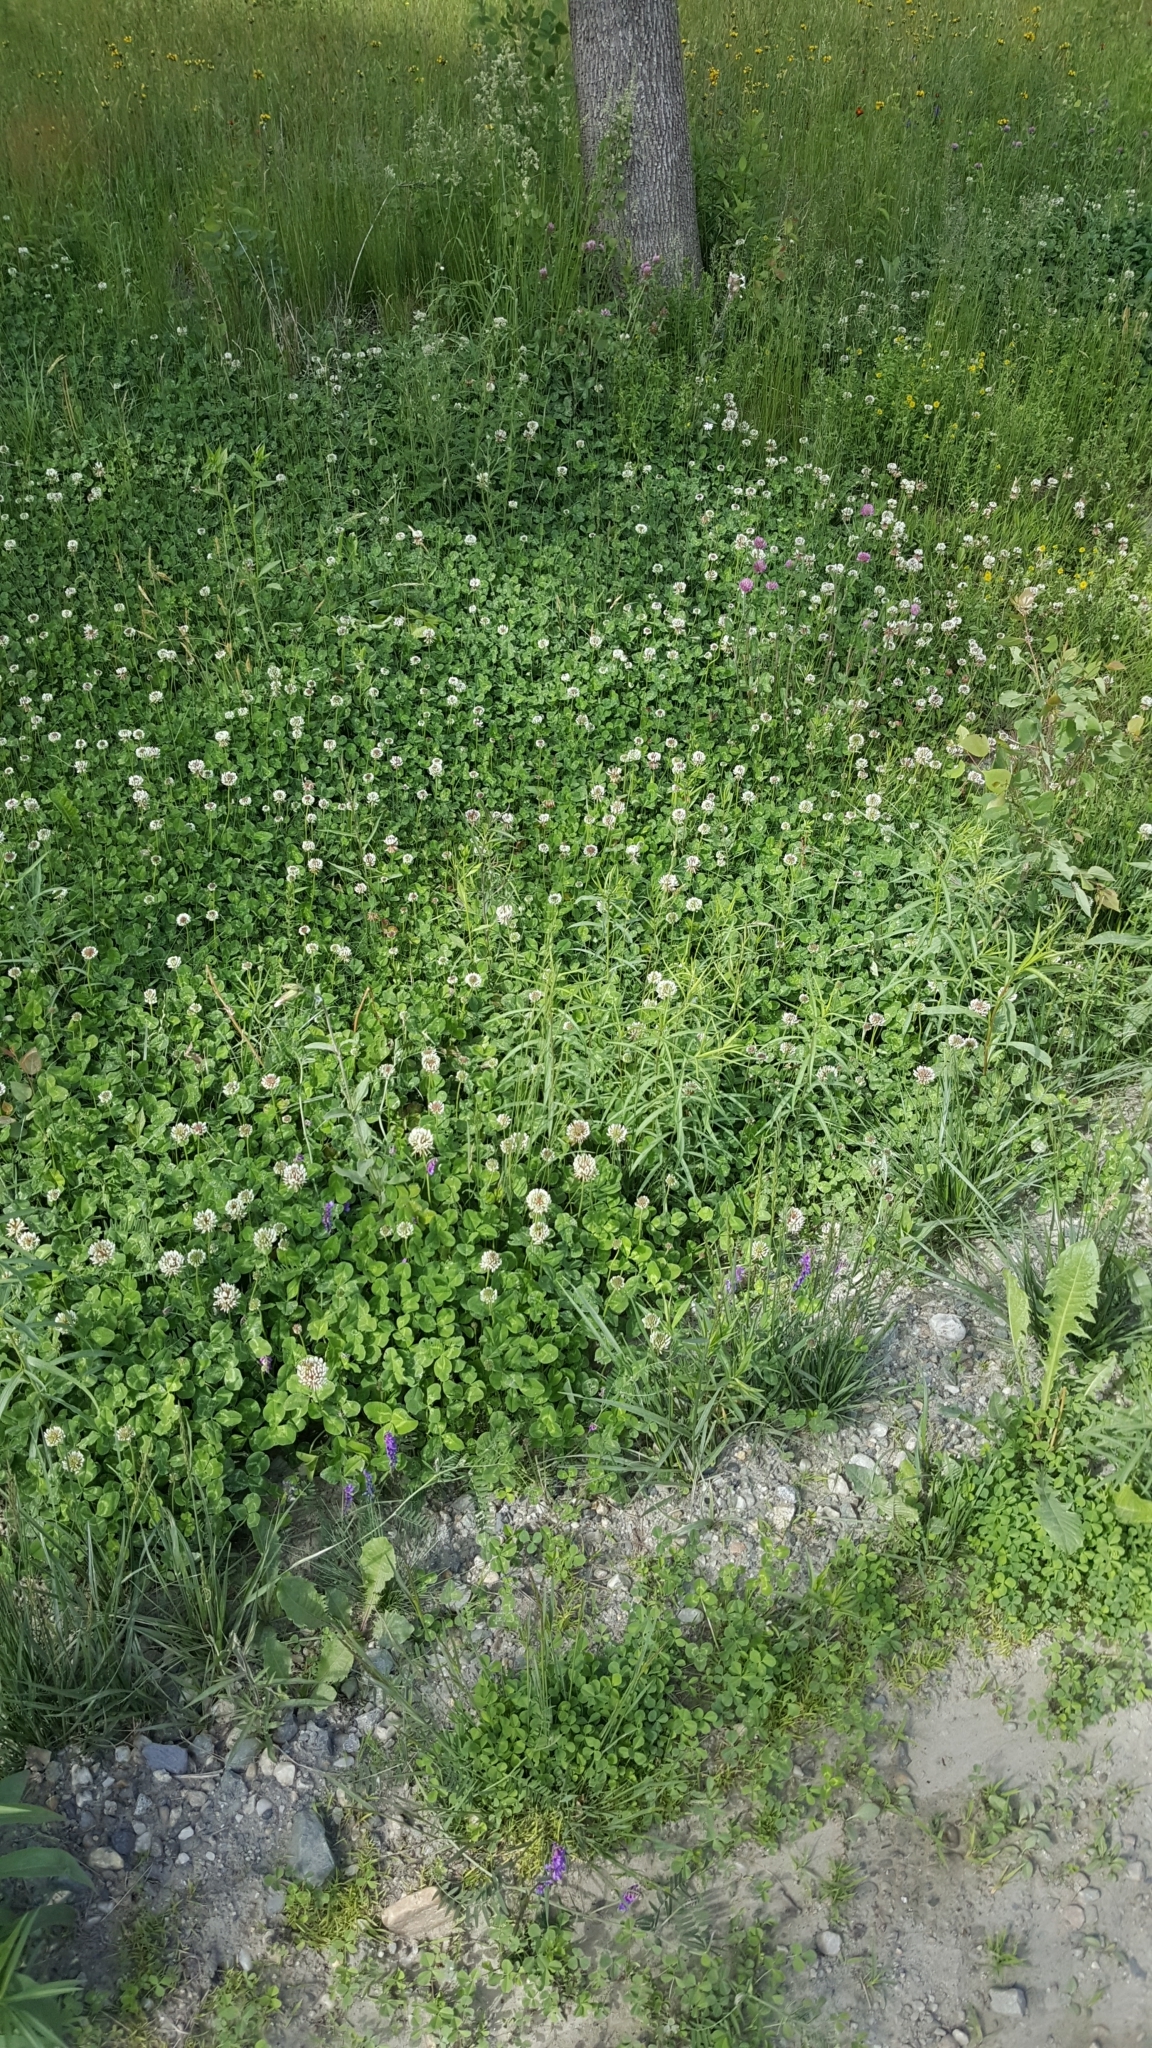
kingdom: Plantae
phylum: Tracheophyta
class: Magnoliopsida
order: Fabales
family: Fabaceae
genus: Trifolium
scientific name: Trifolium repens
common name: White clover
